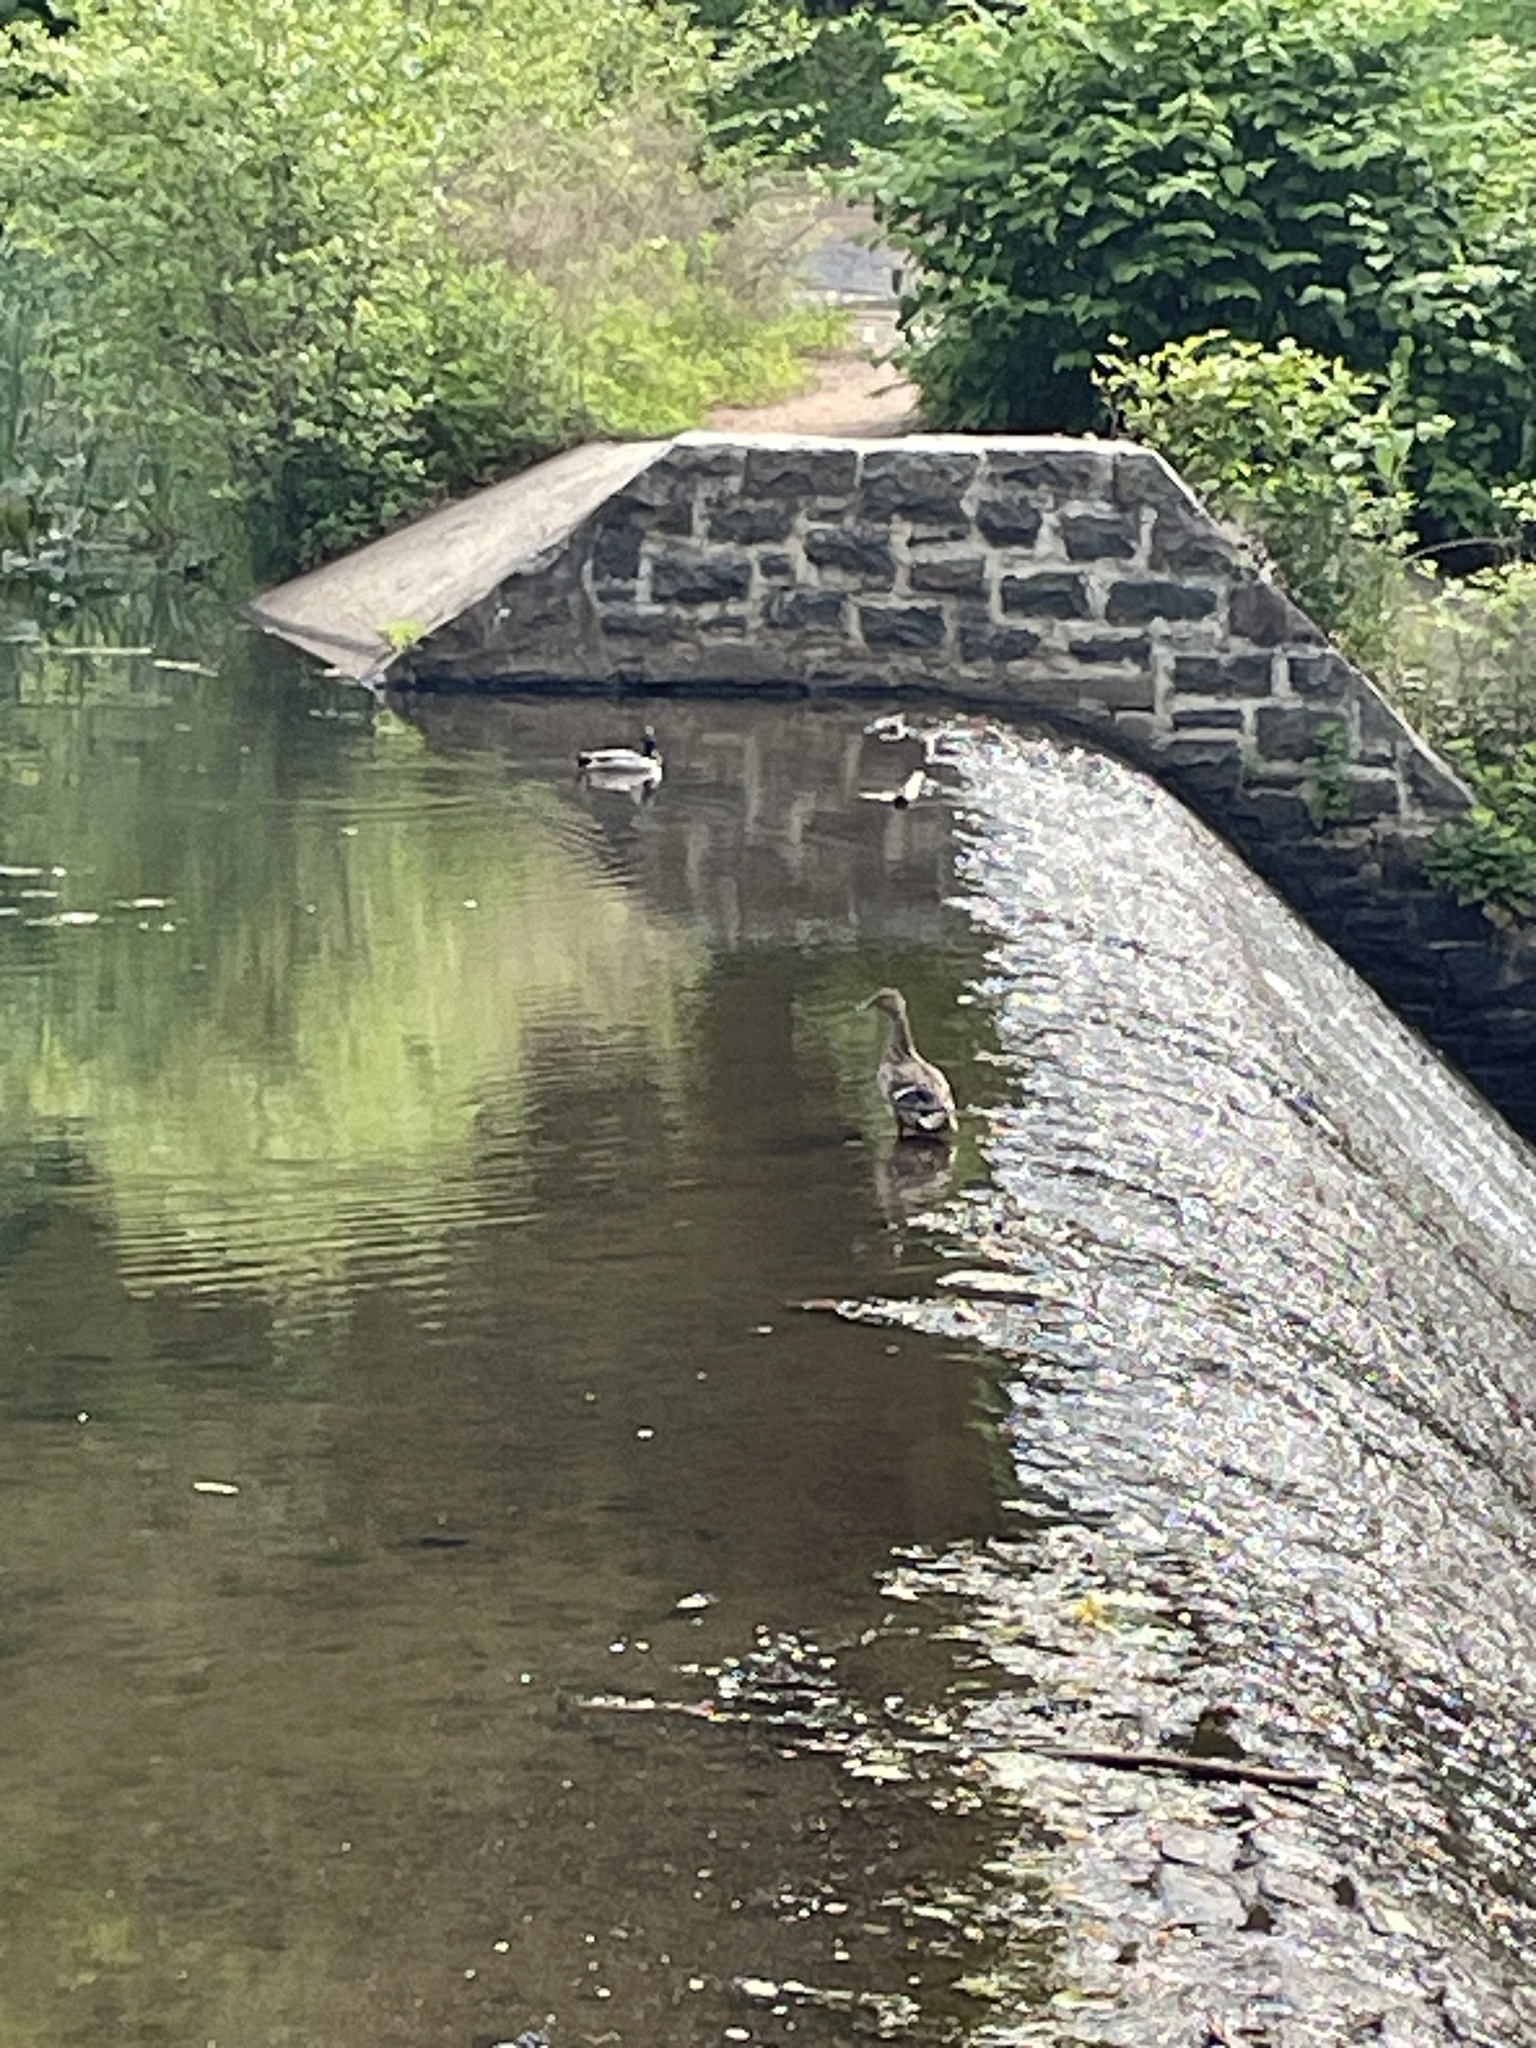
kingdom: Animalia
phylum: Chordata
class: Aves
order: Anseriformes
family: Anatidae
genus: Anas
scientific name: Anas platyrhynchos
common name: Mallard
